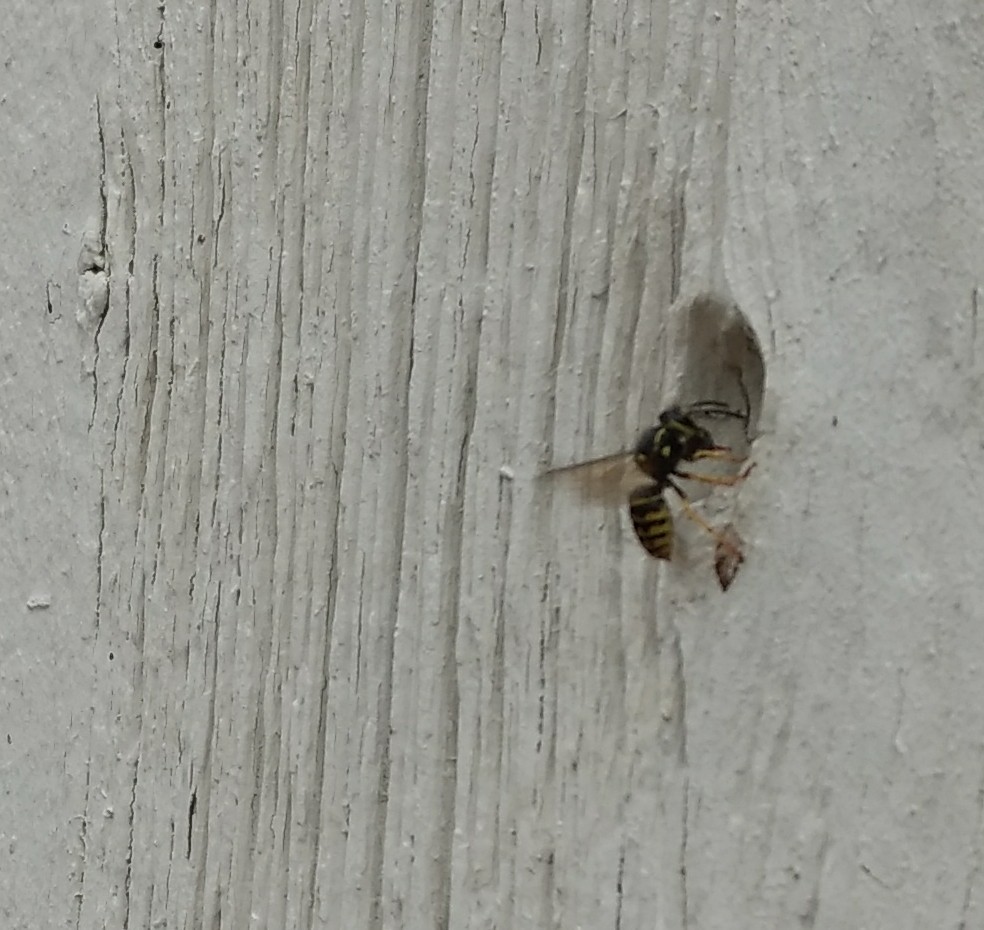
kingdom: Animalia
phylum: Arthropoda
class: Insecta
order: Hymenoptera
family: Vespidae
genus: Dolichovespula
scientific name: Dolichovespula arenaria
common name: Aerial yellowjacket
